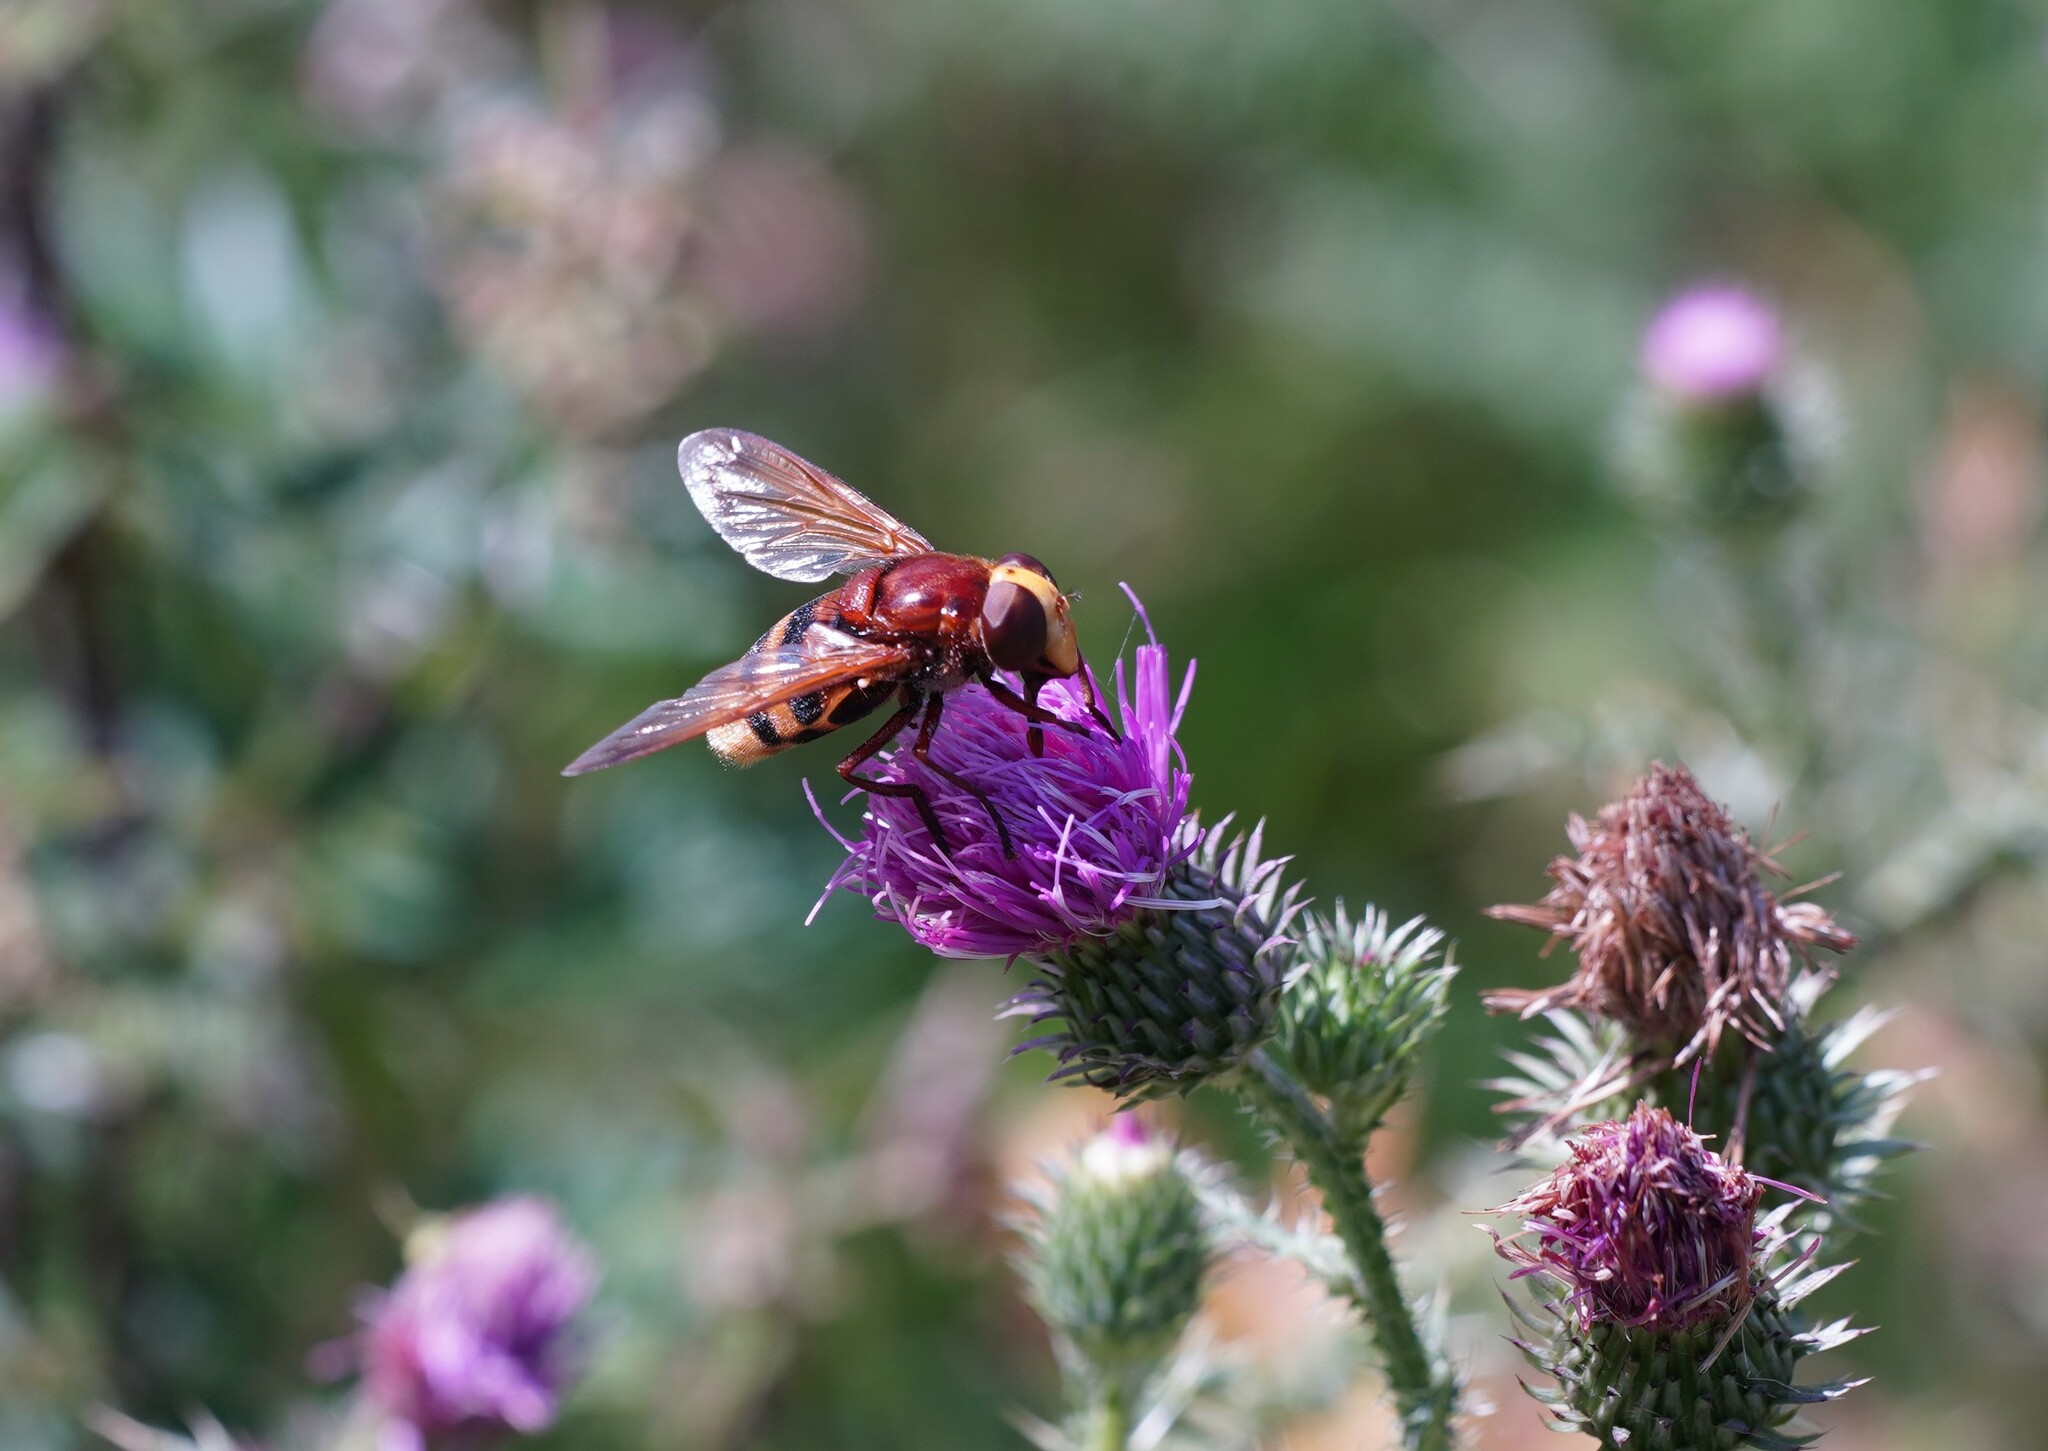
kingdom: Animalia
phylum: Arthropoda
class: Insecta
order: Diptera
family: Syrphidae
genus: Volucella
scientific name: Volucella zonaria
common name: Hornet hoverfly
